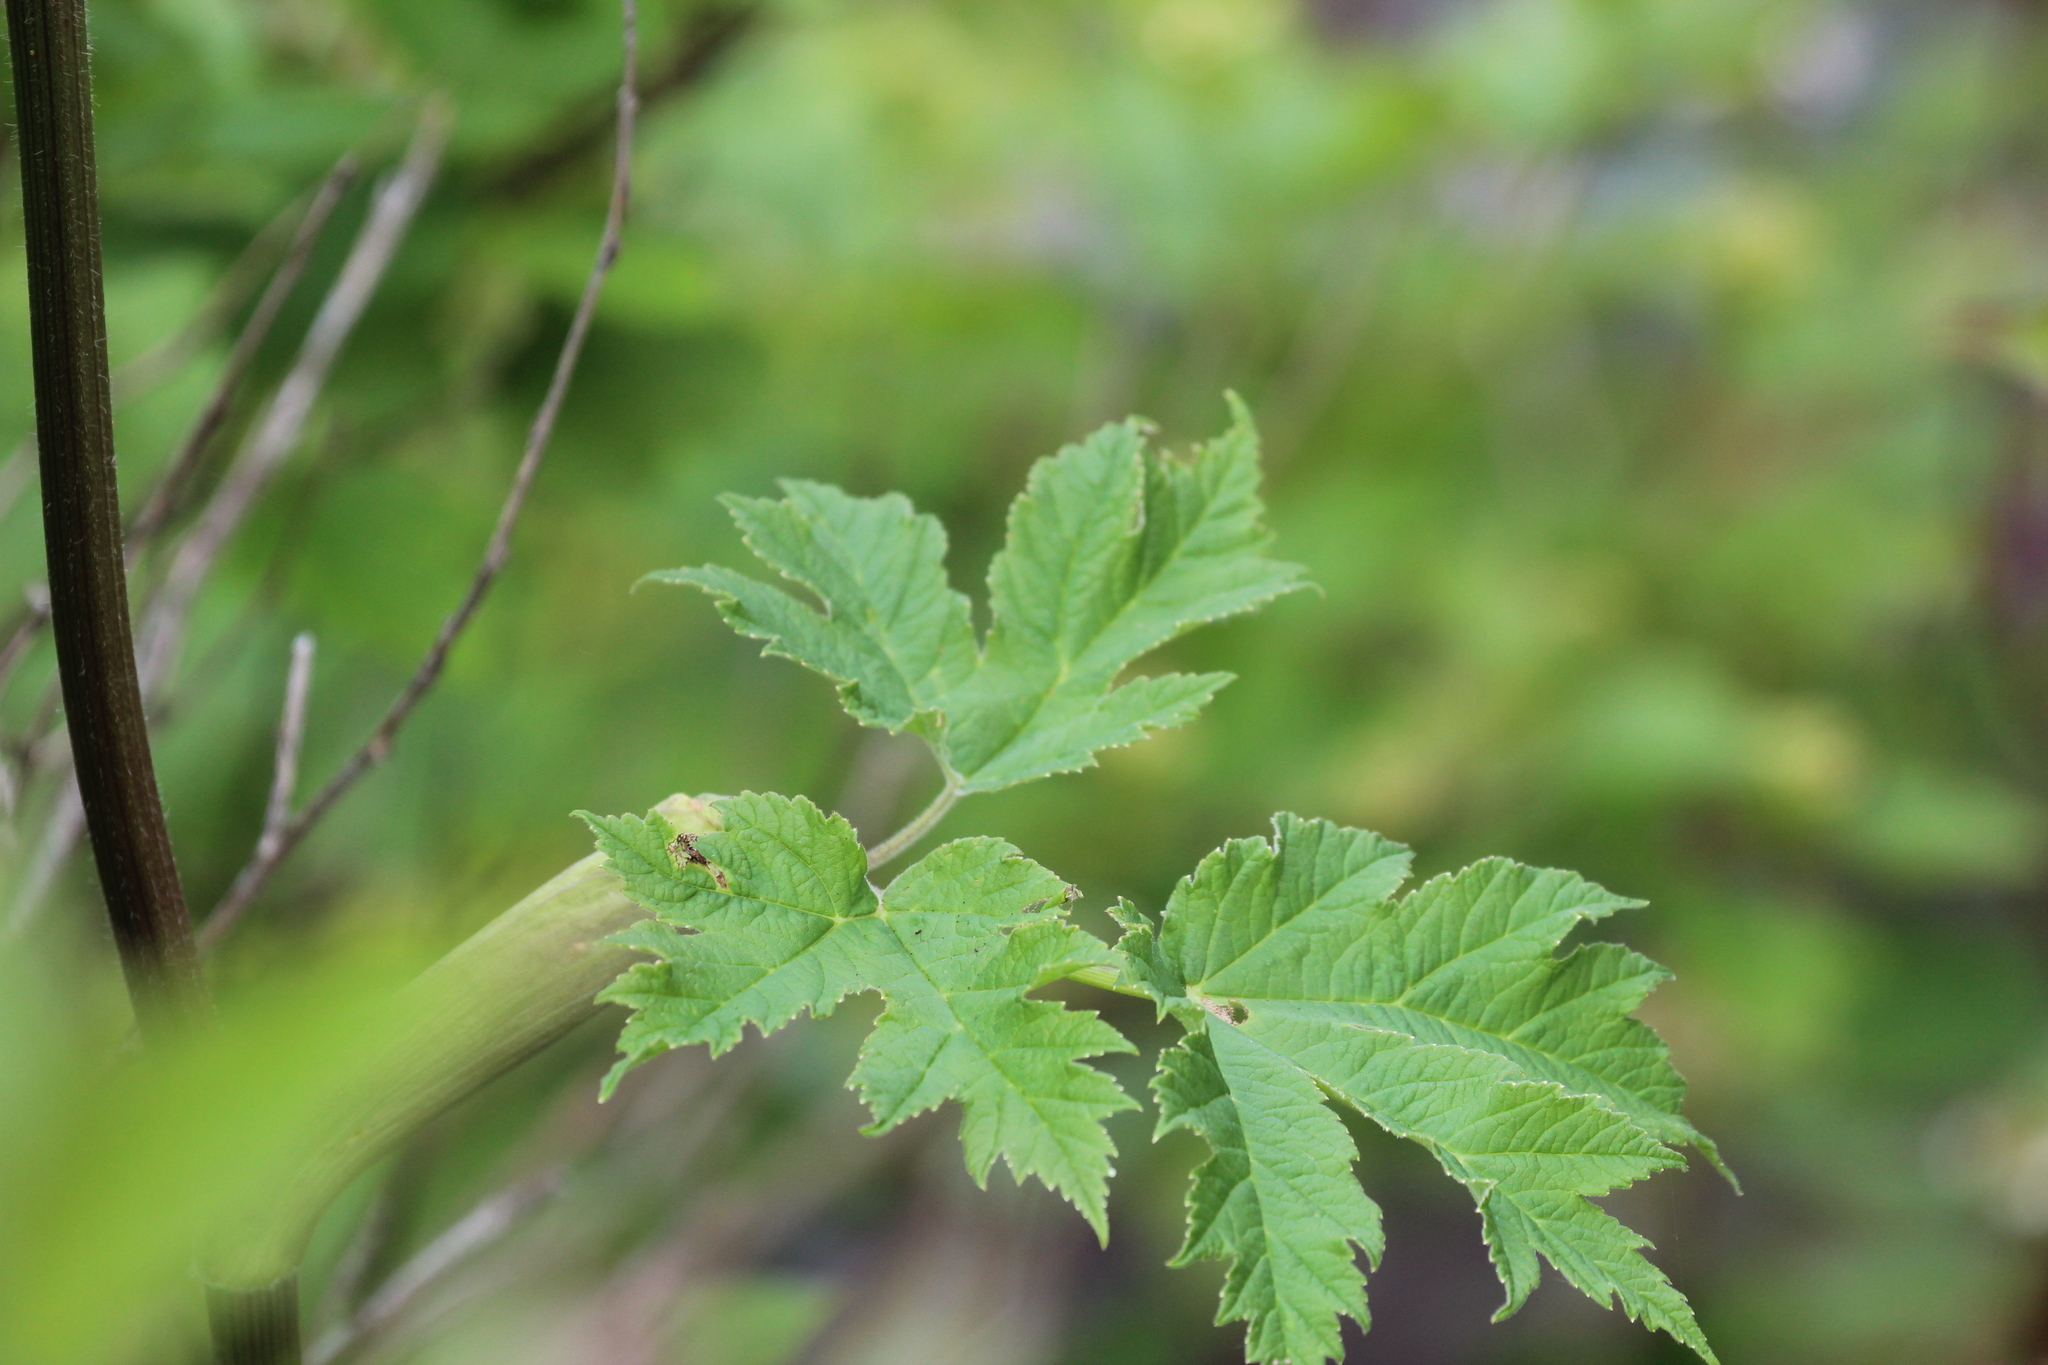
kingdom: Plantae
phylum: Tracheophyta
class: Magnoliopsida
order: Apiales
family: Apiaceae
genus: Heracleum
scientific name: Heracleum maximum
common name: American cow parsnip
